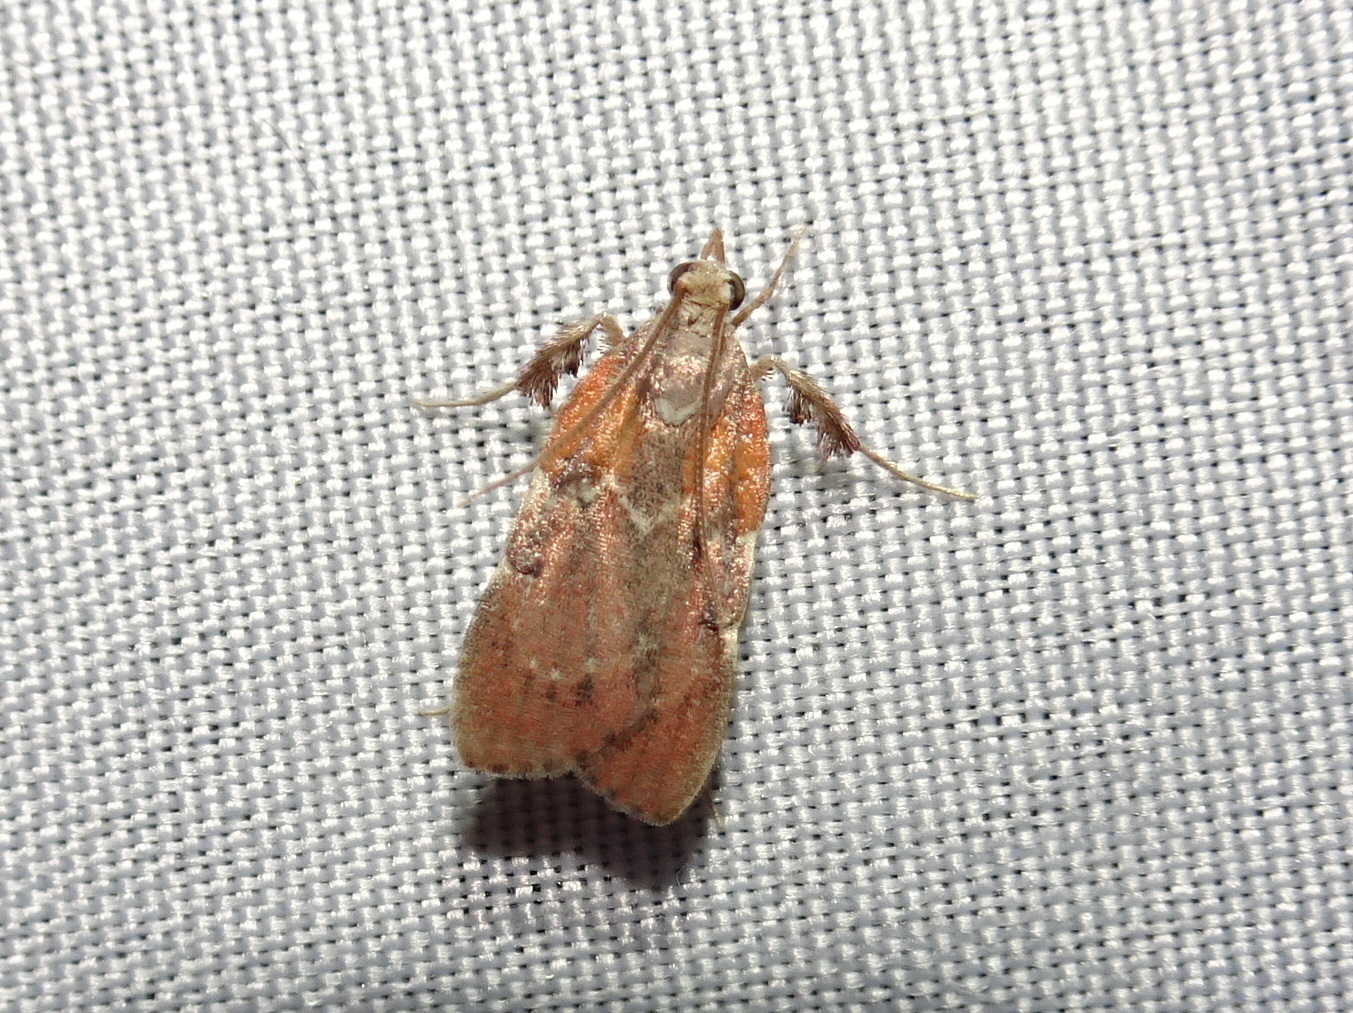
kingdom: Animalia
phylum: Arthropoda
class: Insecta
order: Lepidoptera
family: Pyralidae
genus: Galasa
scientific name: Galasa nigrinodis
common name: Boxwood leaftier moth
